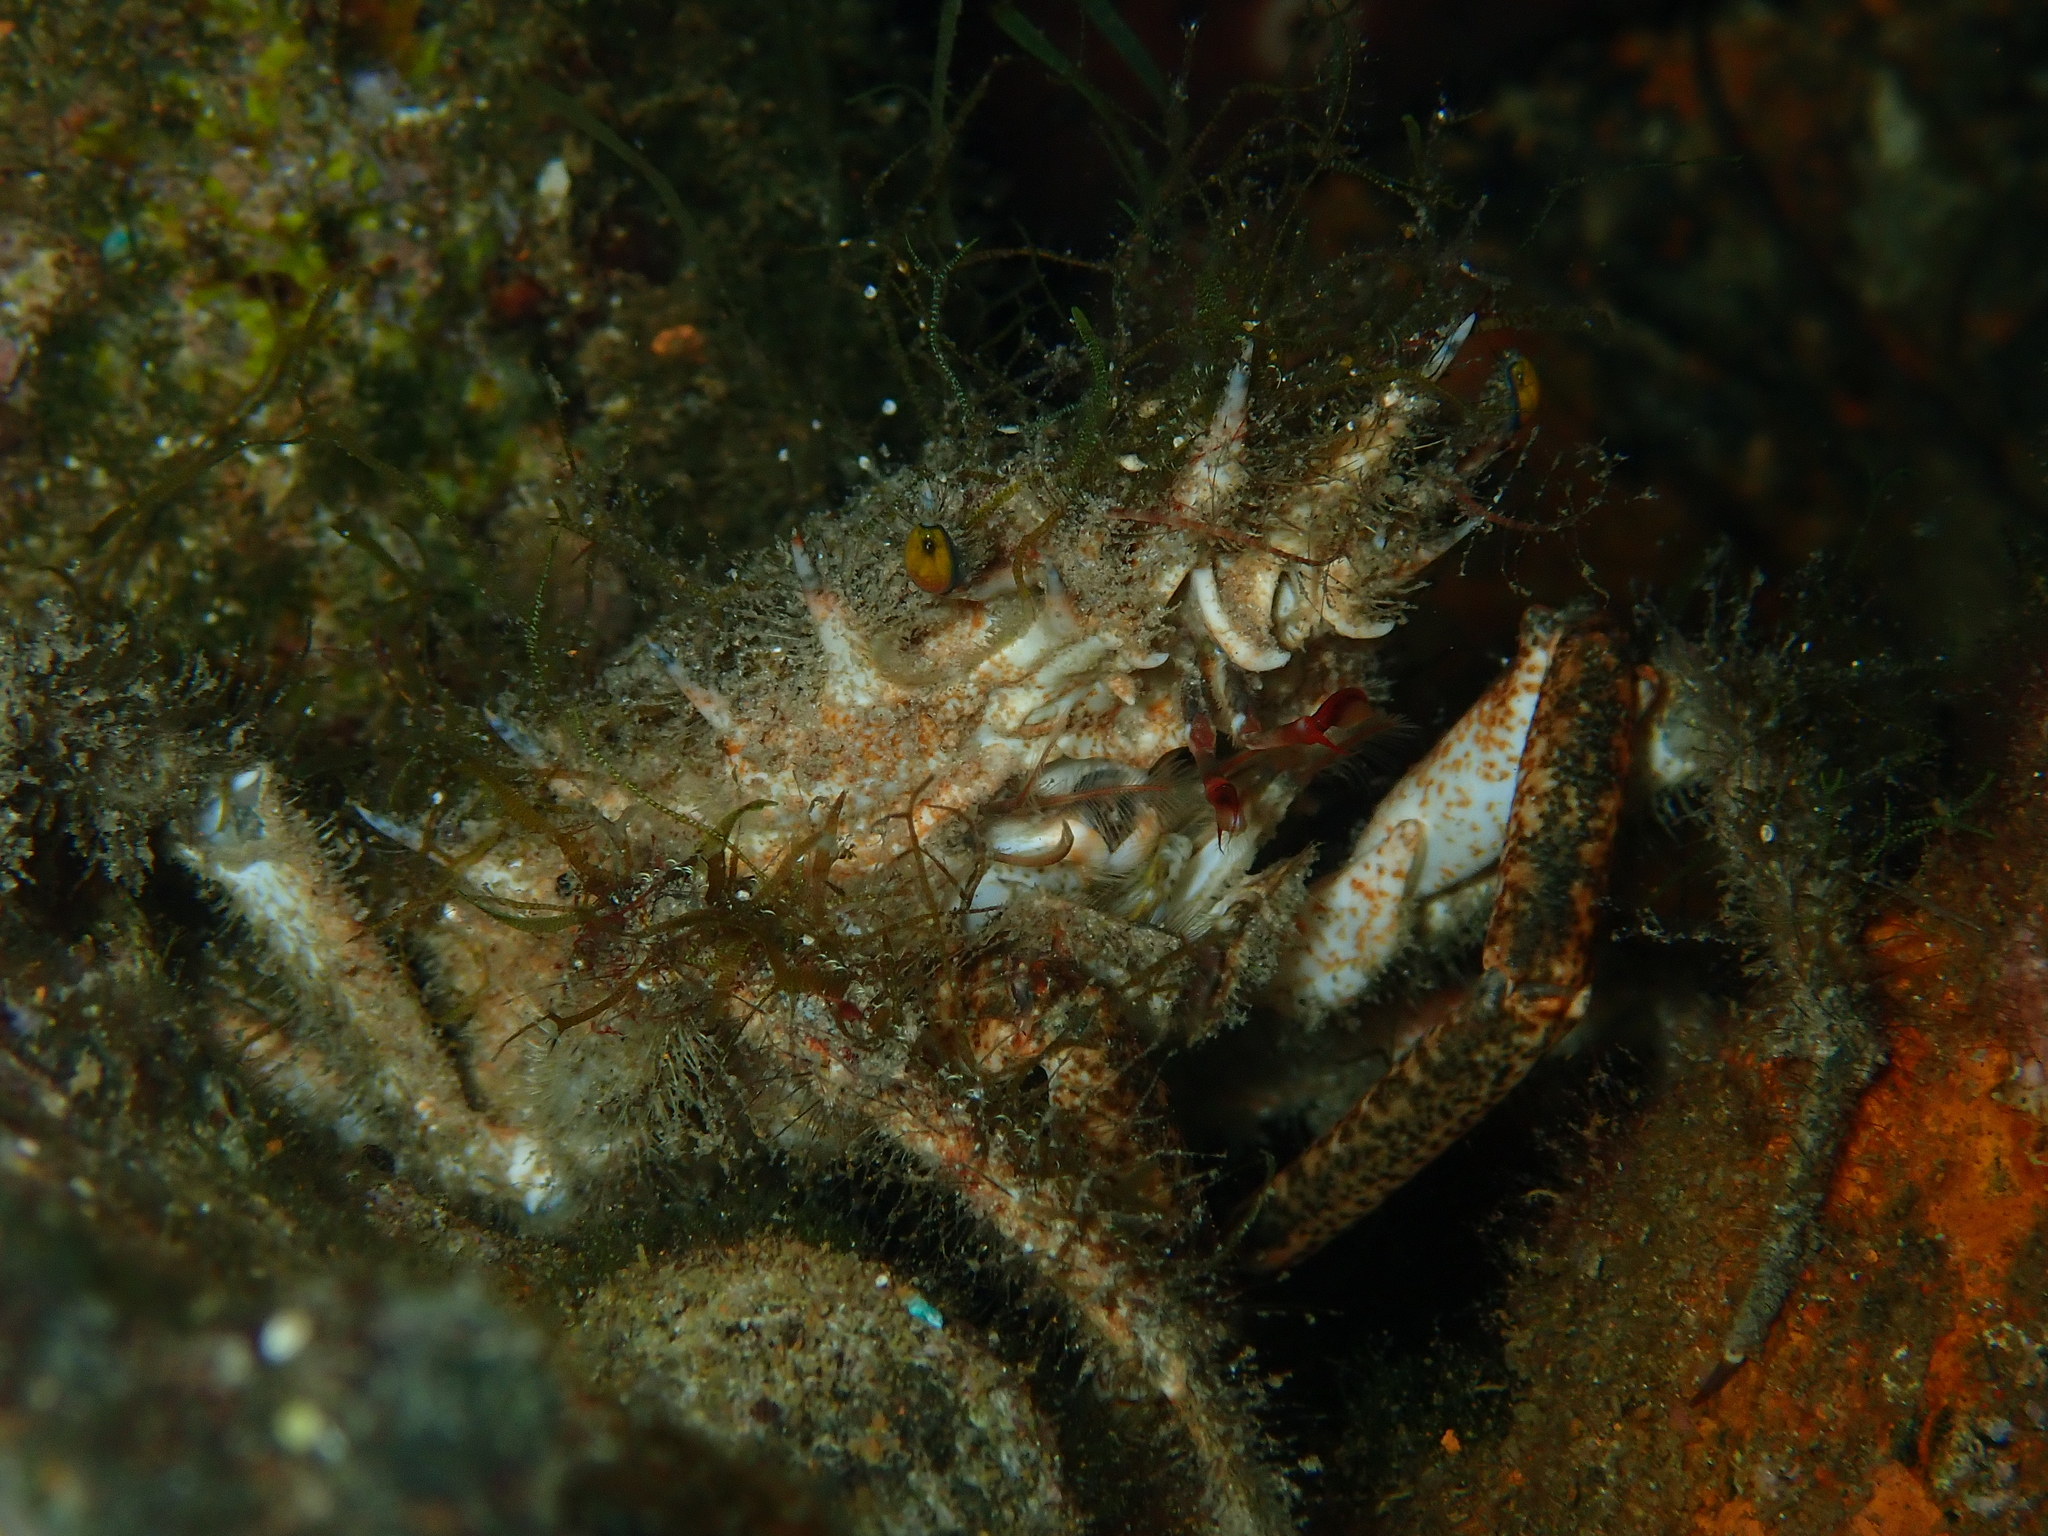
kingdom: Animalia
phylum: Arthropoda
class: Malacostraca
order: Decapoda
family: Majidae
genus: Maja
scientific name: Maja crispata
